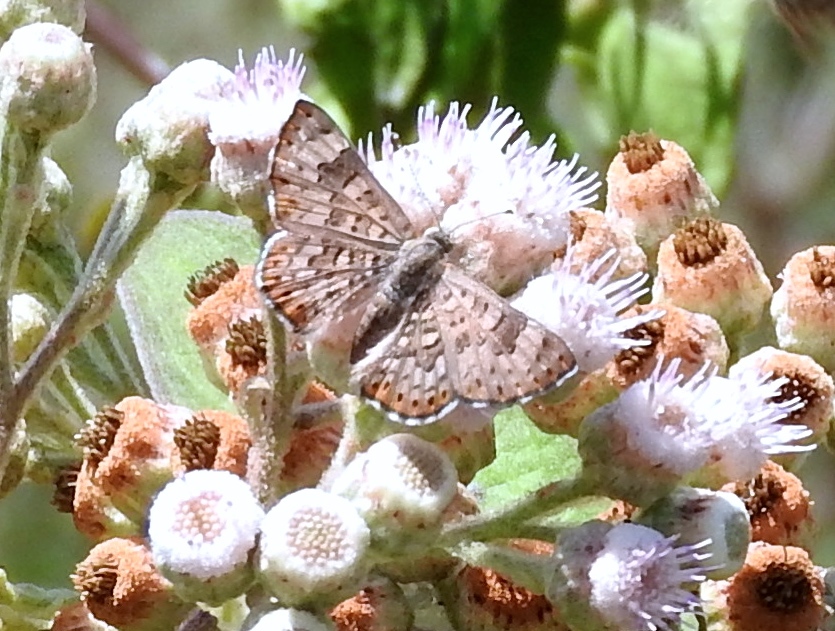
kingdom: Animalia
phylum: Arthropoda
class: Insecta
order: Lepidoptera
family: Riodinidae
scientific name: Riodinidae
